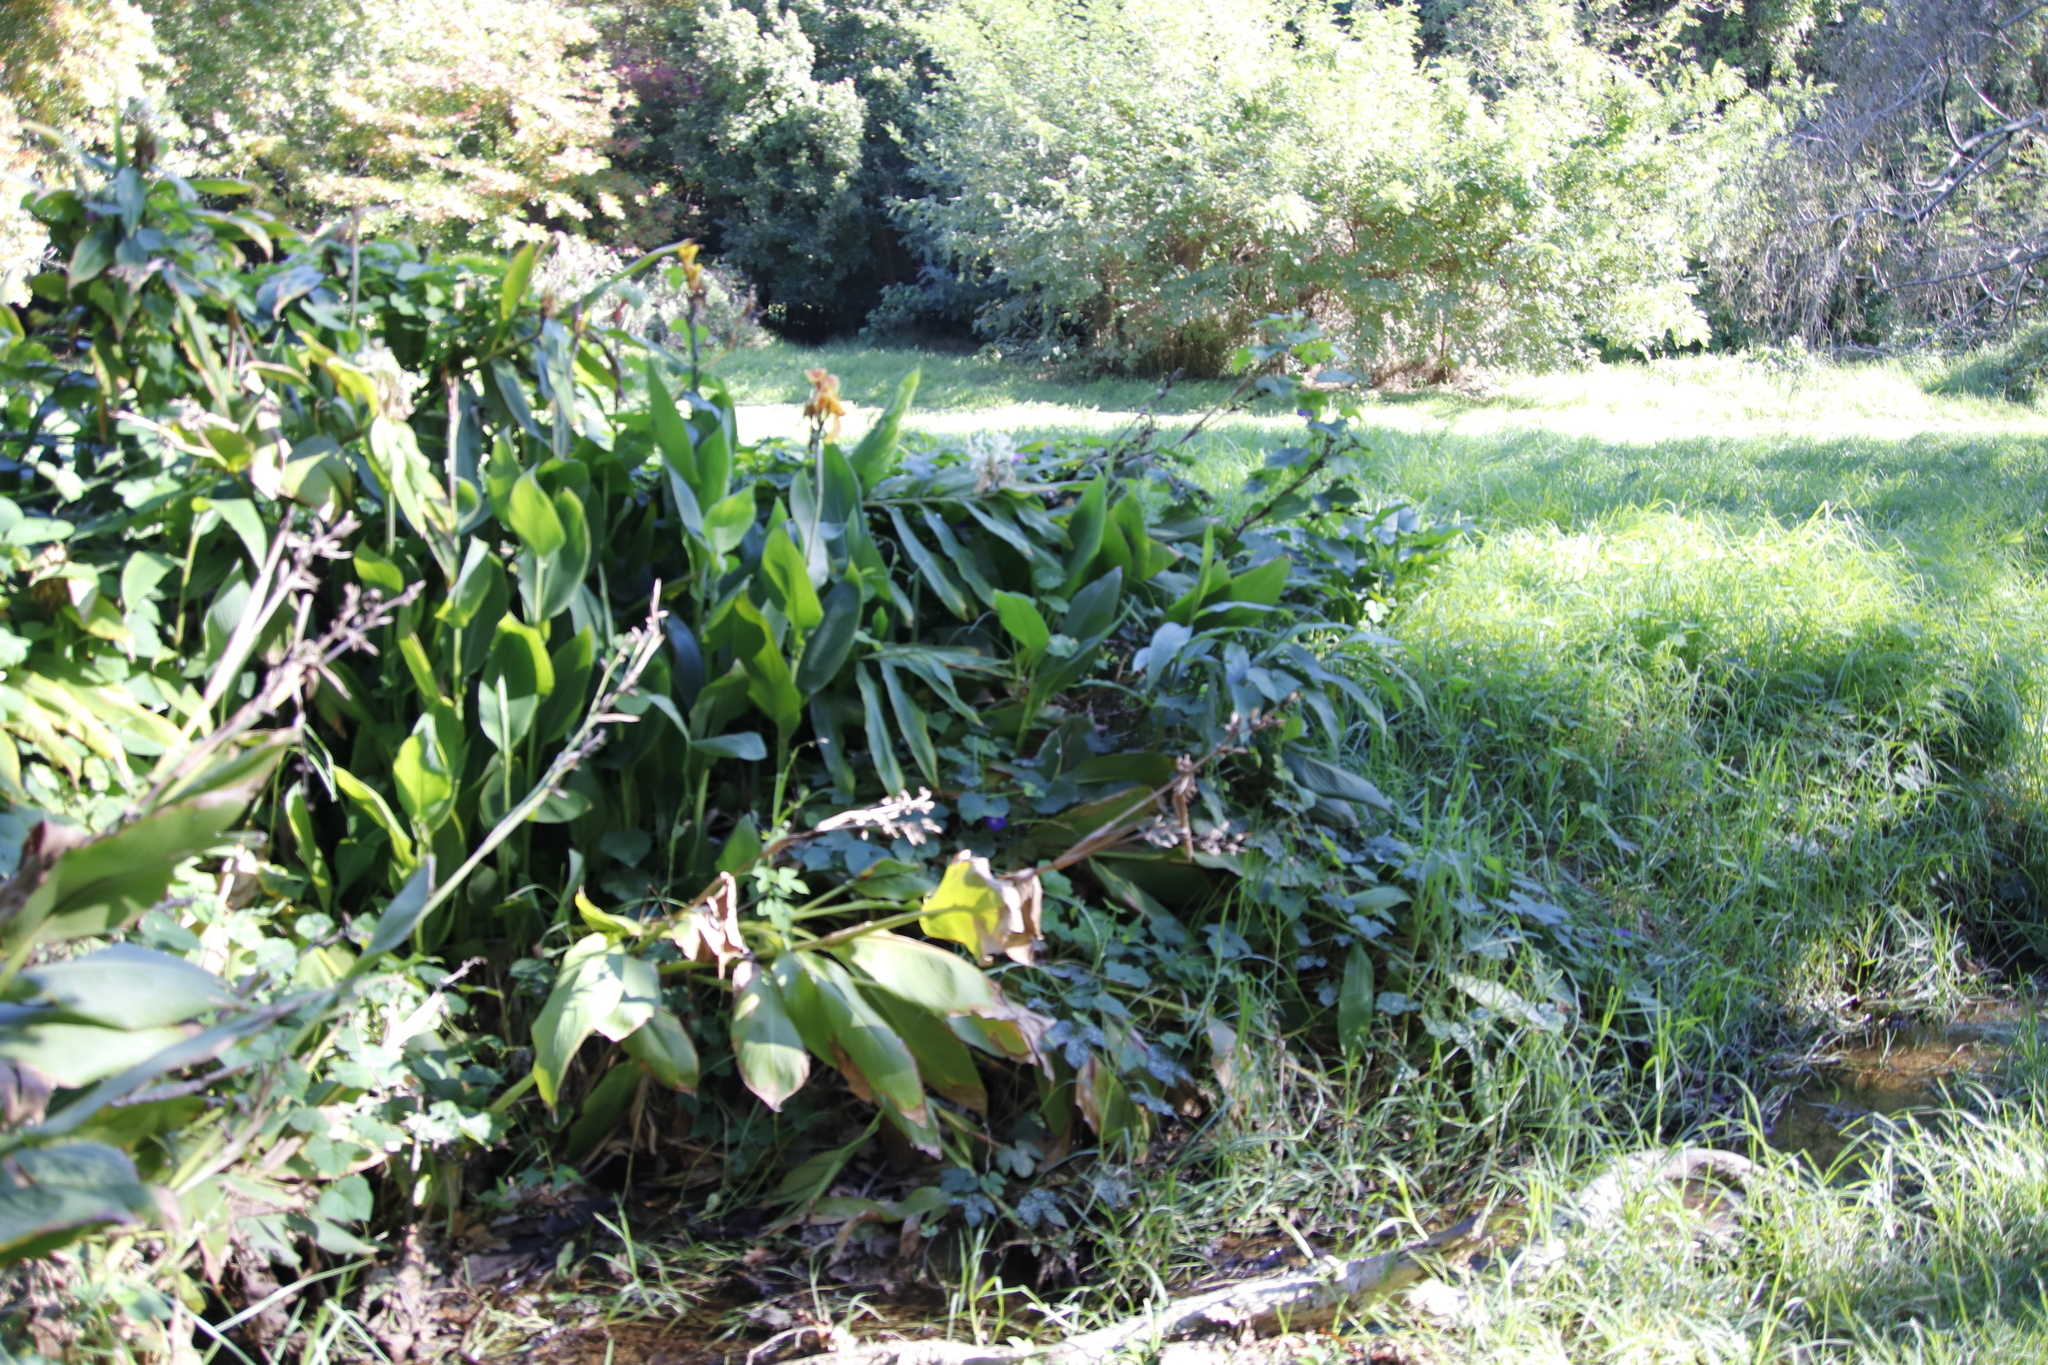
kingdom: Plantae
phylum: Tracheophyta
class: Liliopsida
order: Zingiberales
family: Zingiberaceae
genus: Hedychium
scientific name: Hedychium flavescens
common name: Yellow ginger
